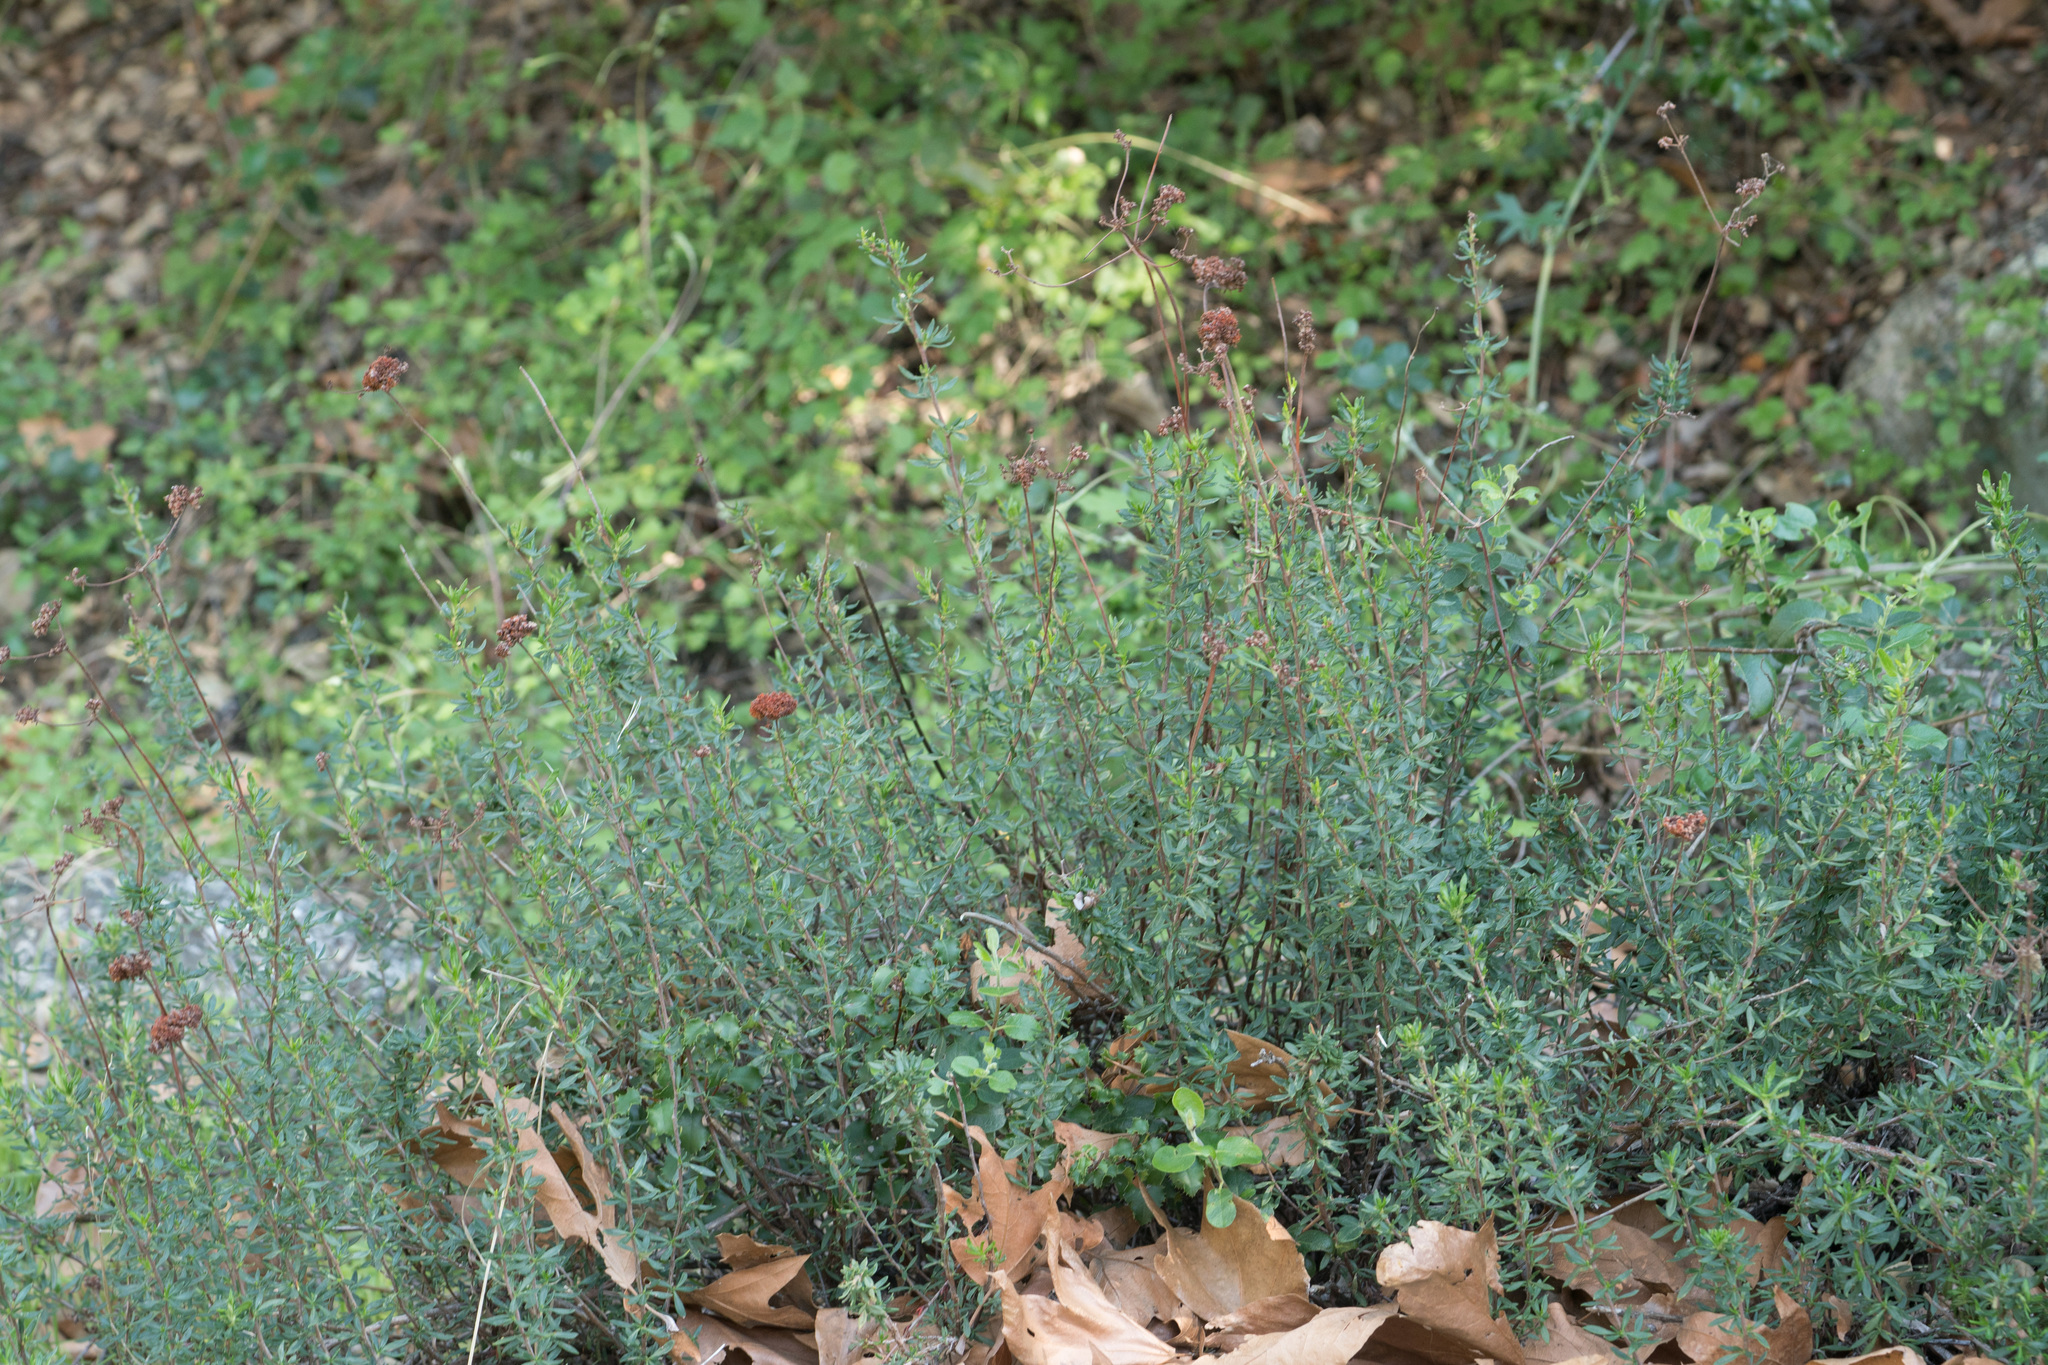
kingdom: Plantae
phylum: Tracheophyta
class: Magnoliopsida
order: Caryophyllales
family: Polygonaceae
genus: Eriogonum
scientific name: Eriogonum fasciculatum
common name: California wild buckwheat
